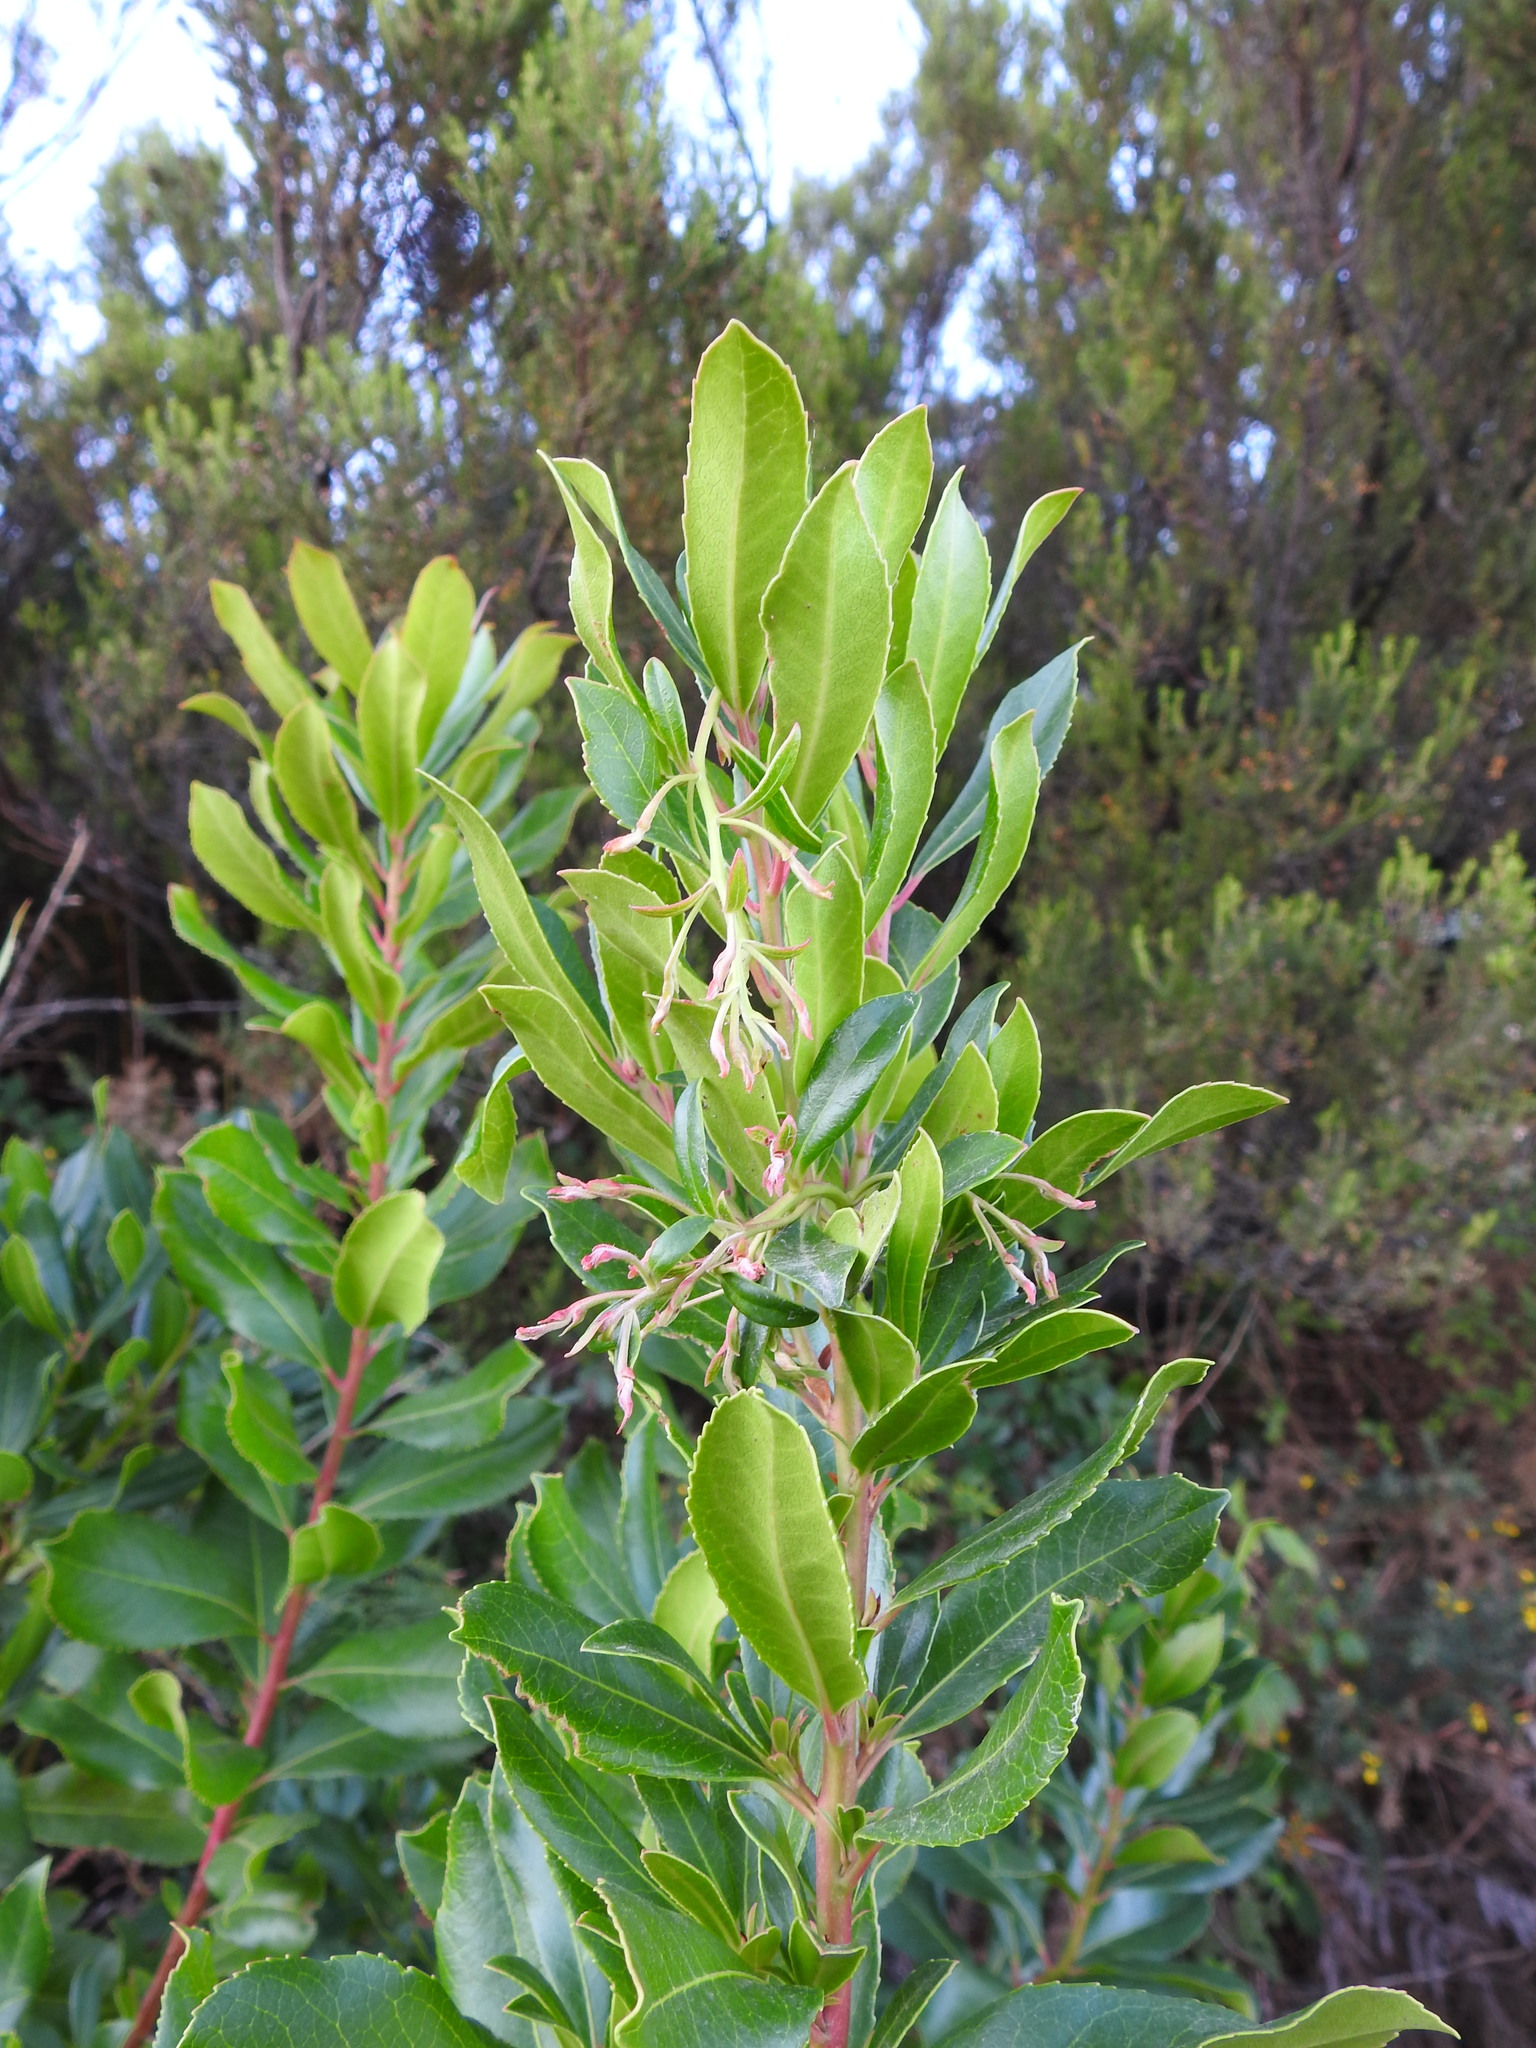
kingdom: Plantae
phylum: Tracheophyta
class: Magnoliopsida
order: Ericales
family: Ericaceae
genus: Arbutus
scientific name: Arbutus unedo
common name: Strawberry-tree
